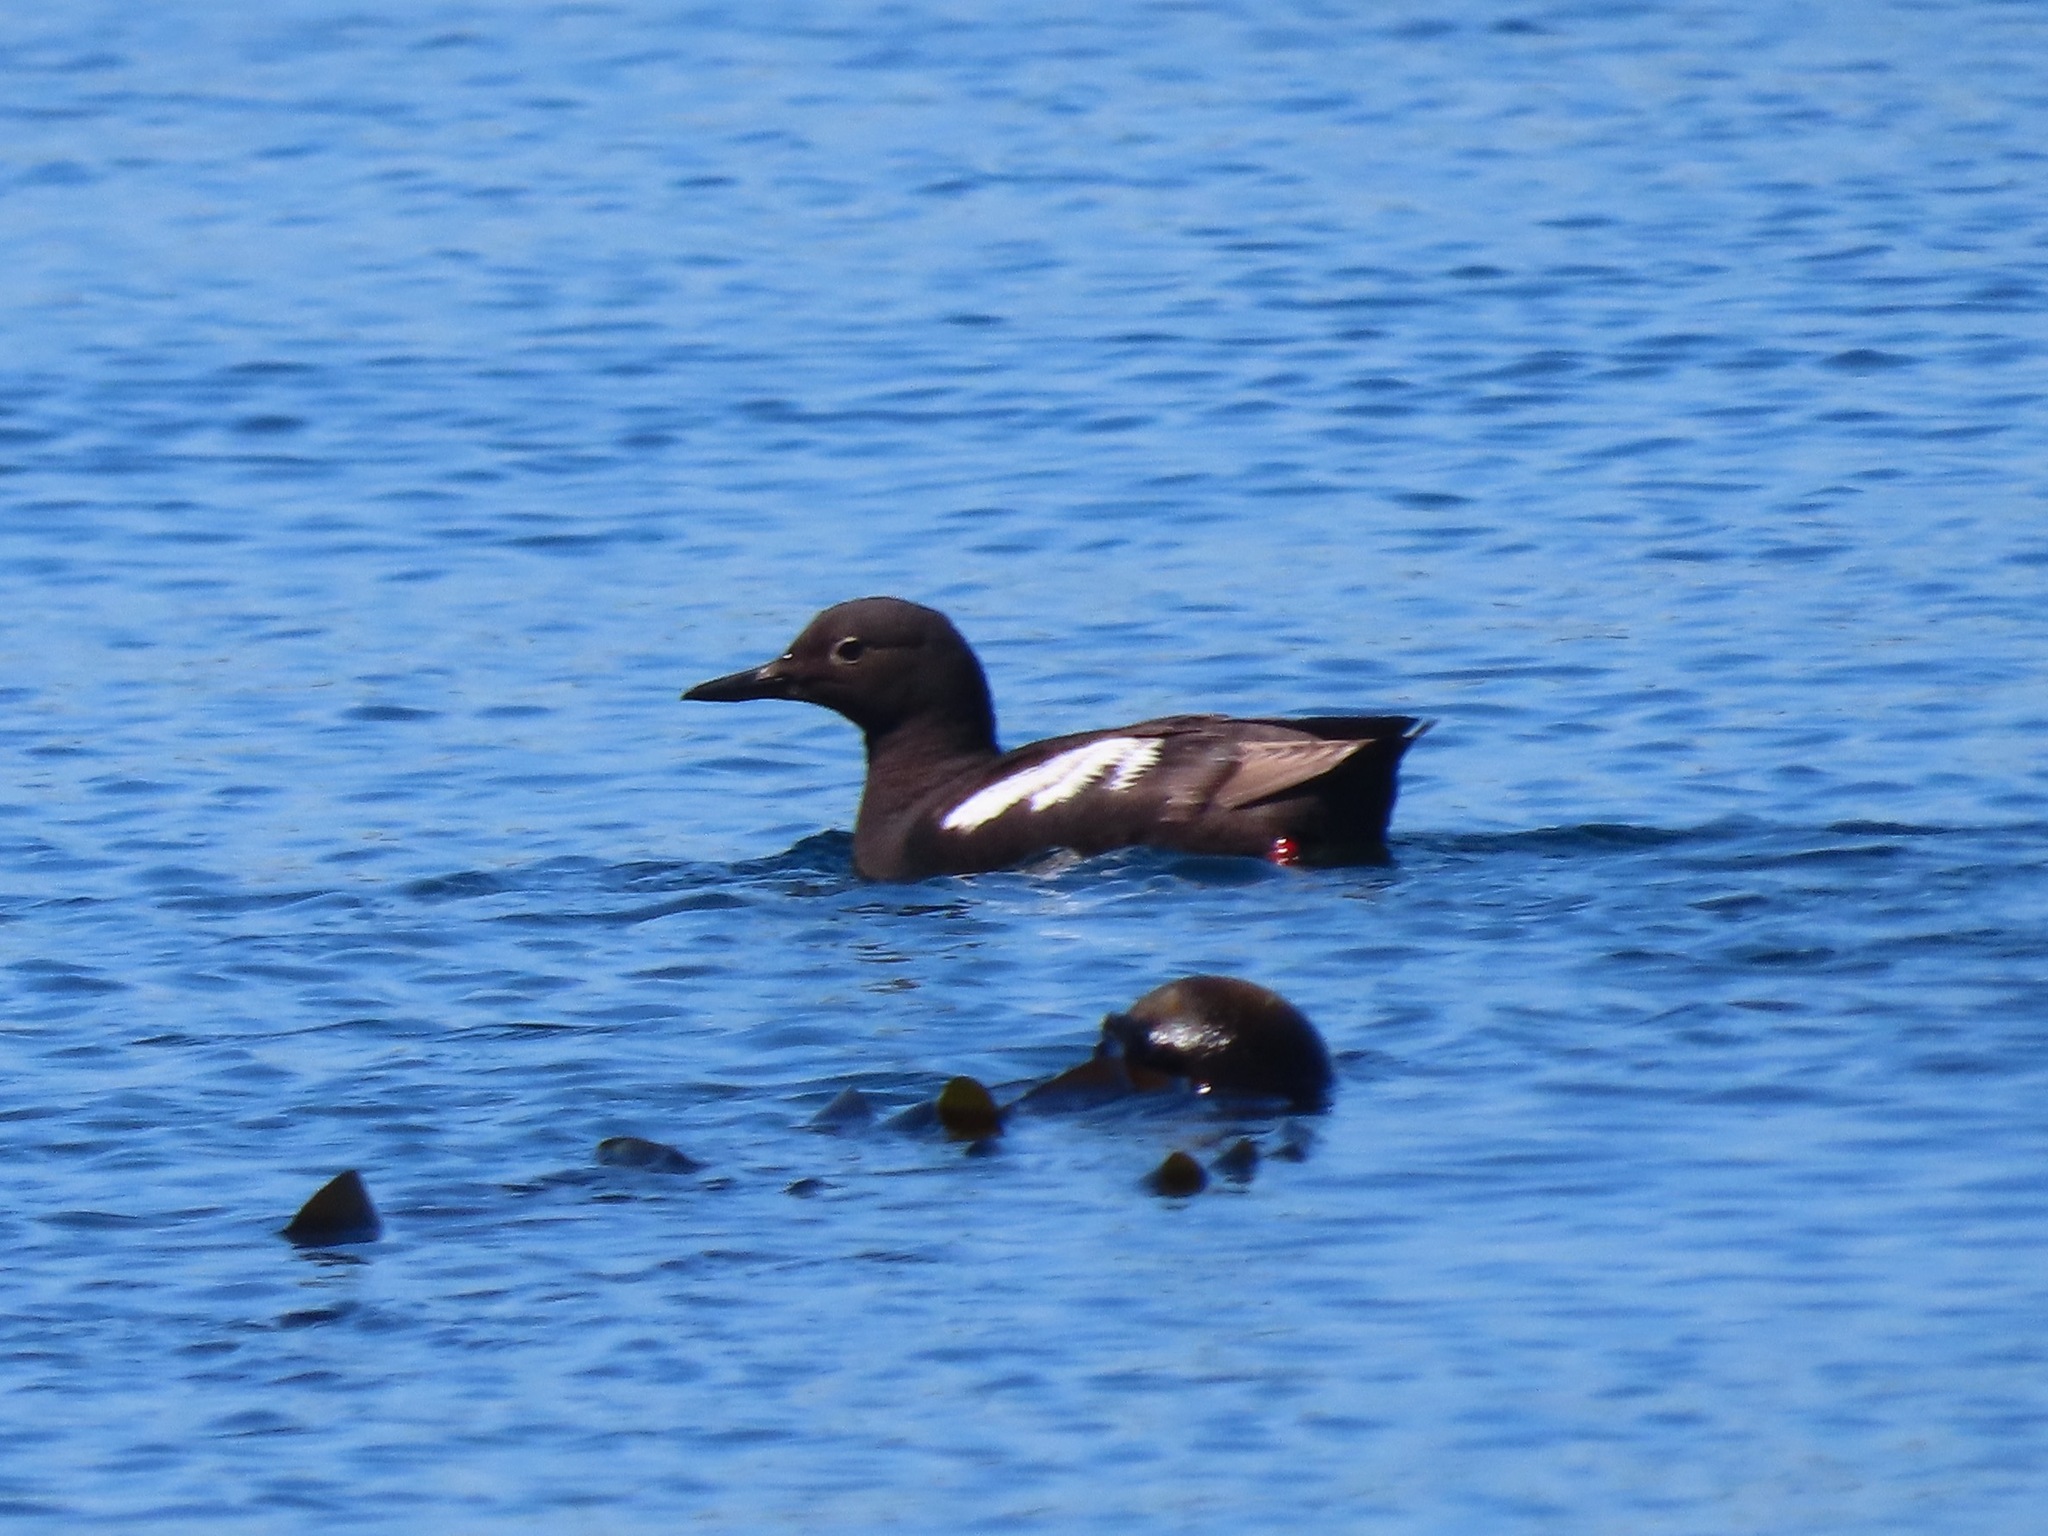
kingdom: Animalia
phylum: Chordata
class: Aves
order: Charadriiformes
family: Alcidae
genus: Cepphus
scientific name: Cepphus columba
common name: Pigeon guillemot
